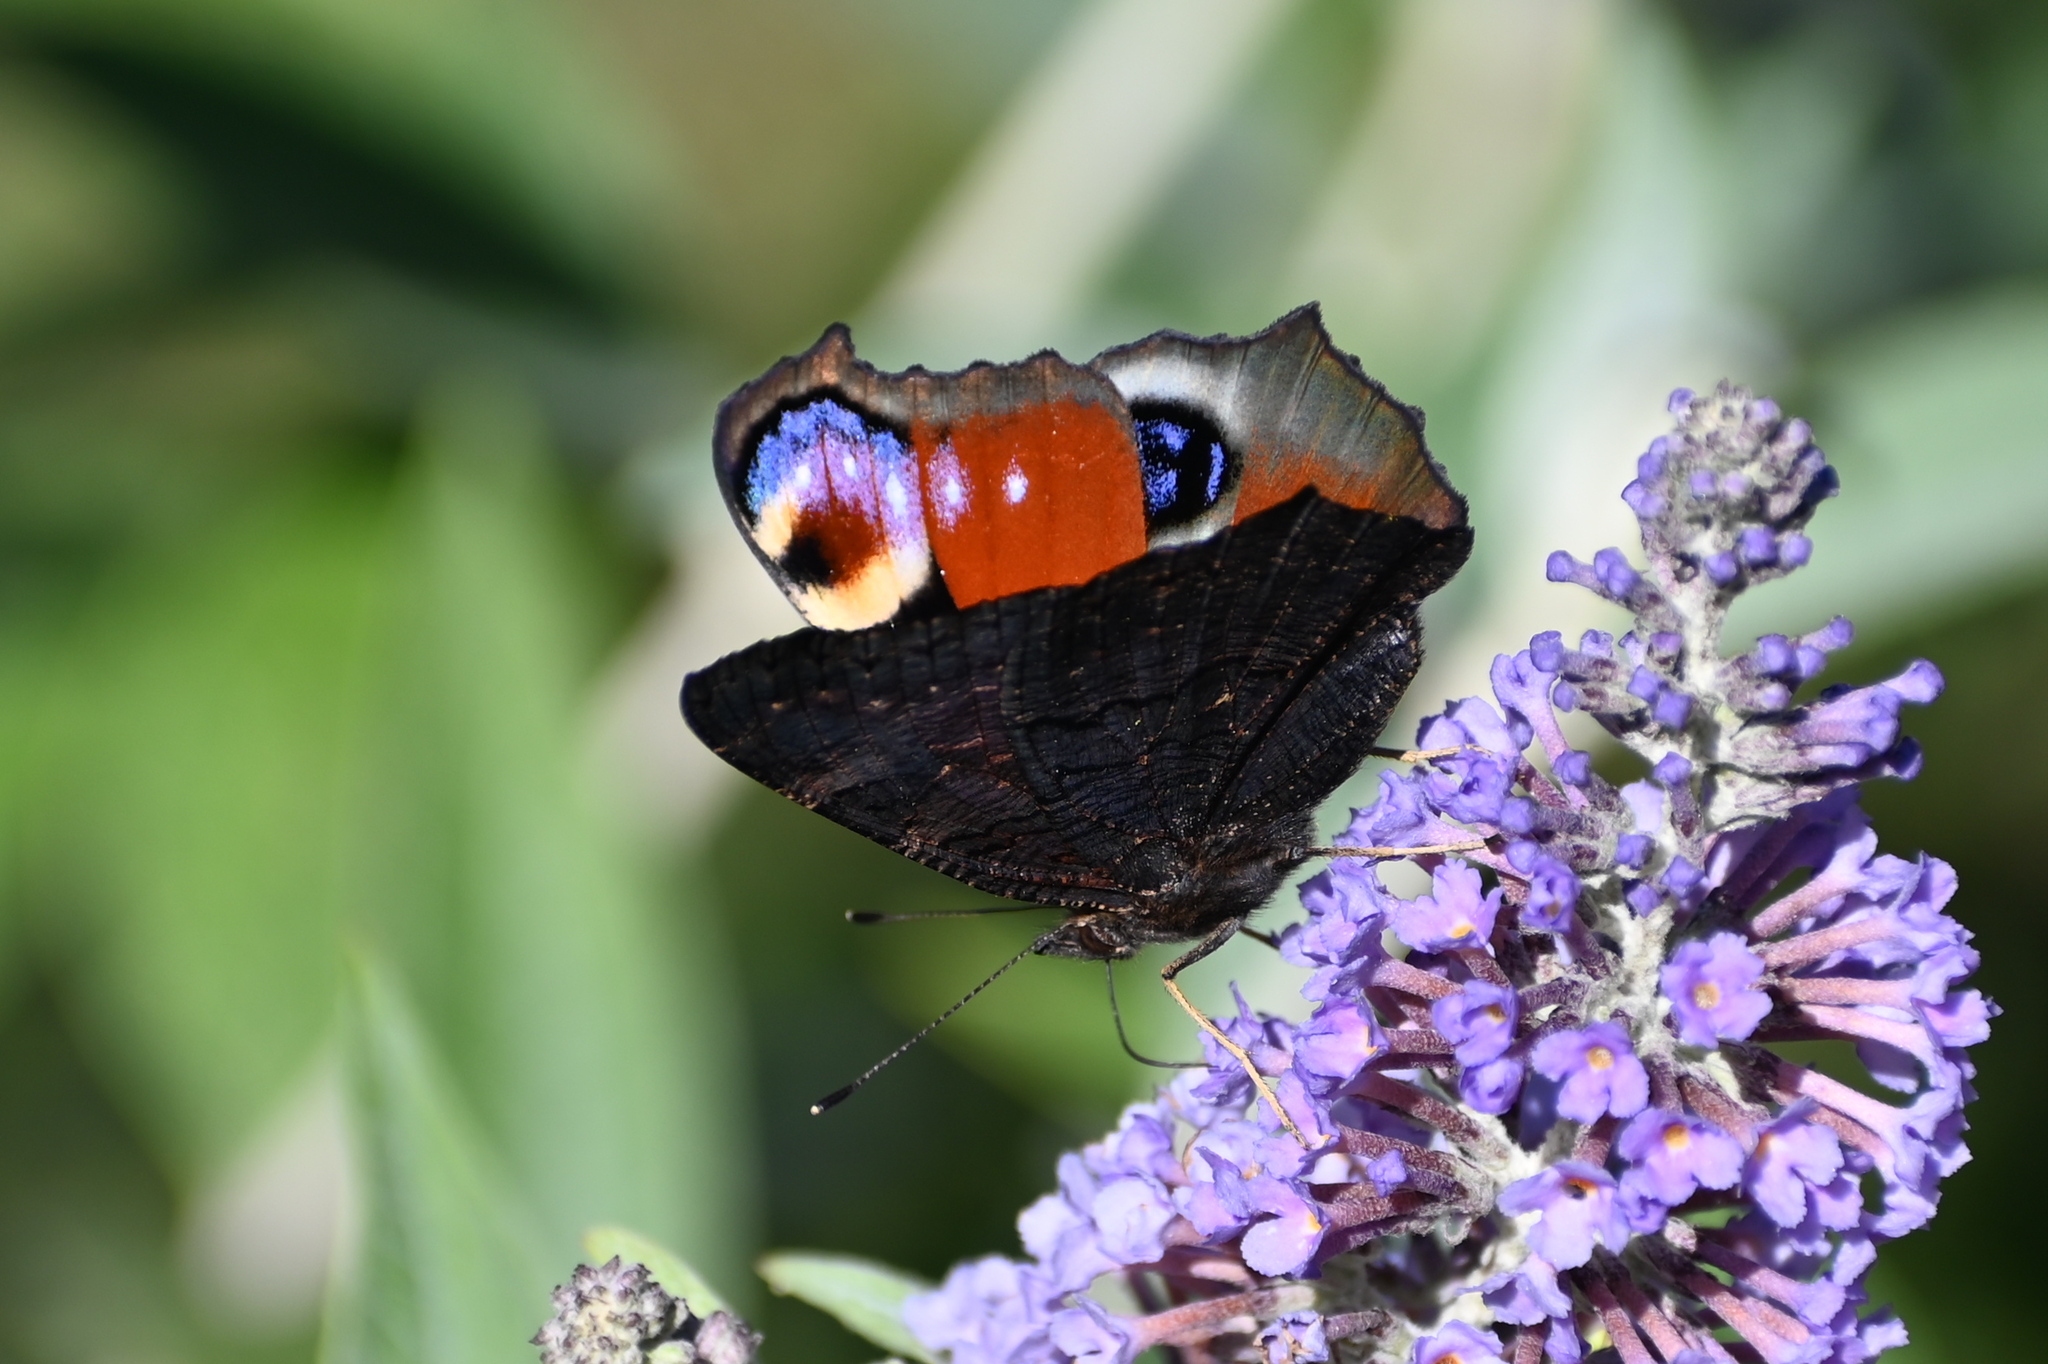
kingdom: Animalia
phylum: Arthropoda
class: Insecta
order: Lepidoptera
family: Nymphalidae
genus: Aglais
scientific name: Aglais io
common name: Peacock
